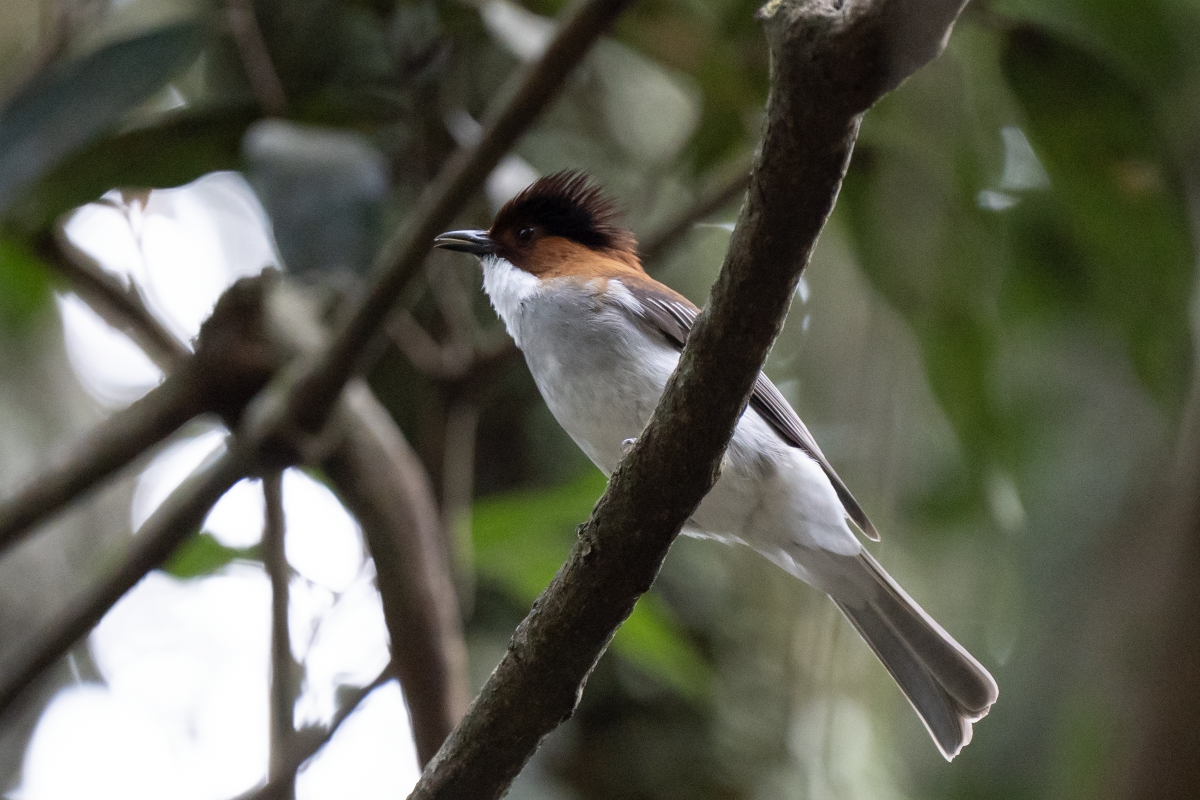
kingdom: Animalia
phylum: Chordata
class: Aves
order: Passeriformes
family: Pycnonotidae
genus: Hemixos
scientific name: Hemixos castanonotus
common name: Chestnut bulbul
